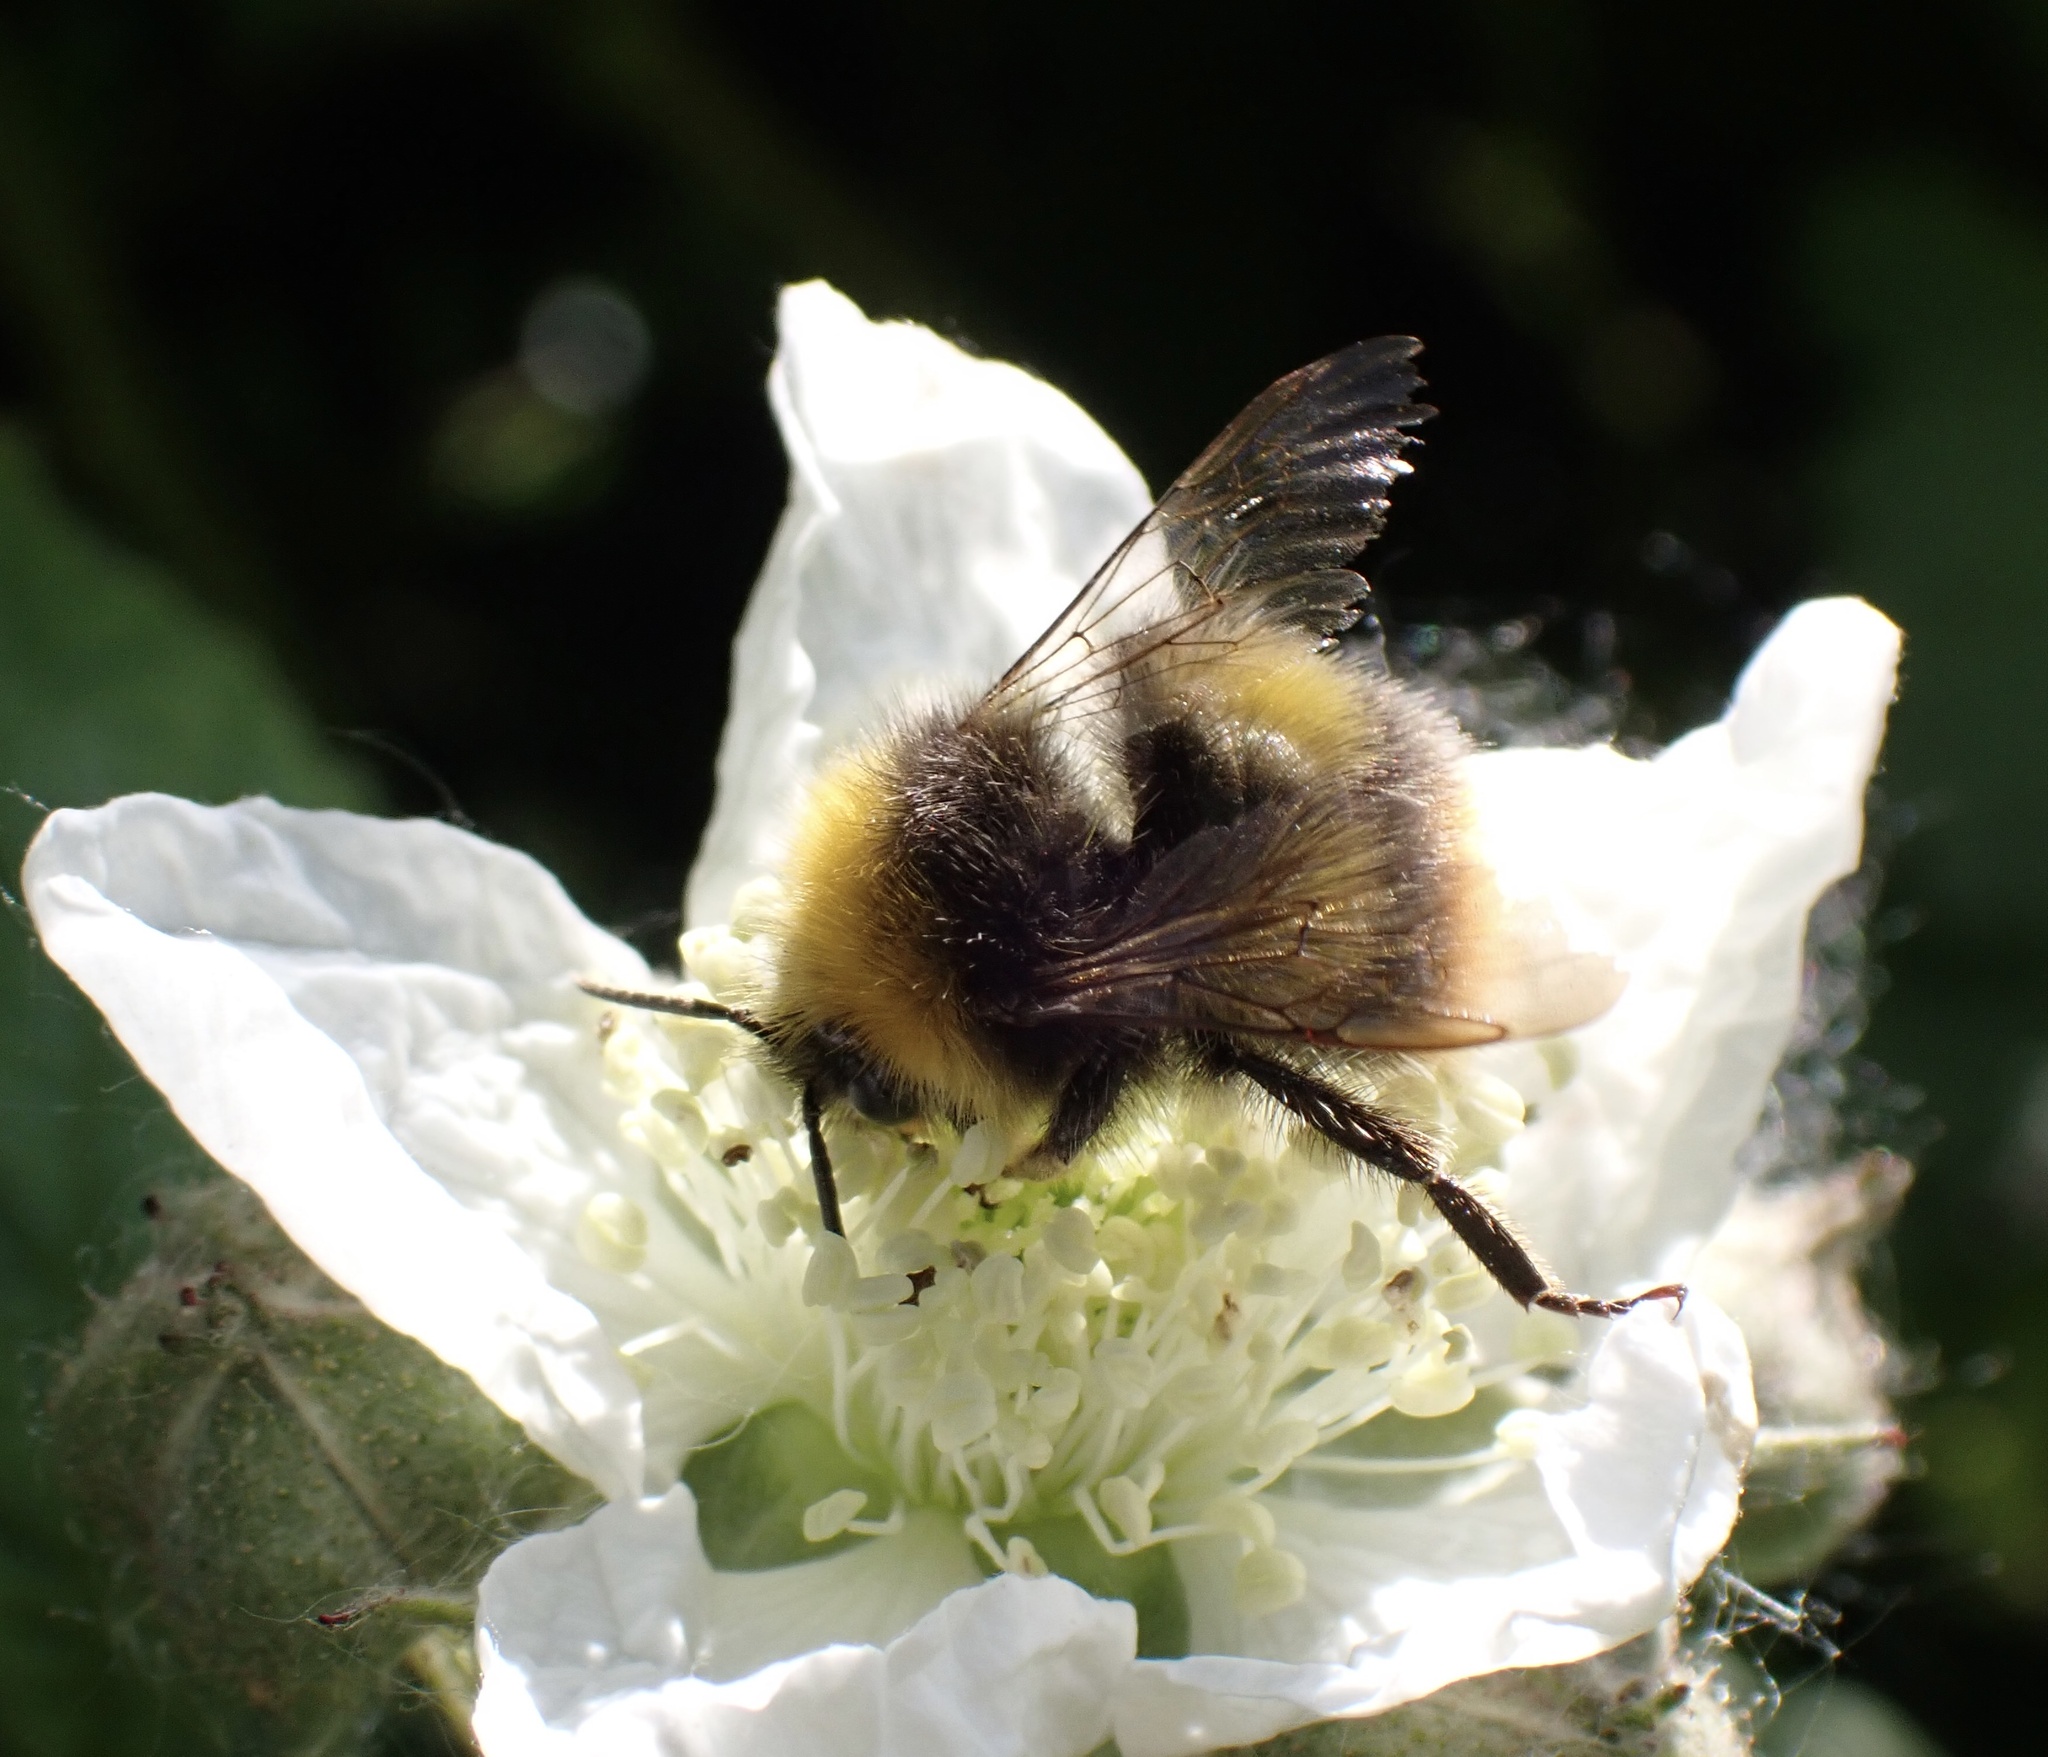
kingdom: Animalia
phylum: Arthropoda
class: Insecta
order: Hymenoptera
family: Apidae
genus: Bombus
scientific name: Bombus pratorum
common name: Early humble-bee
